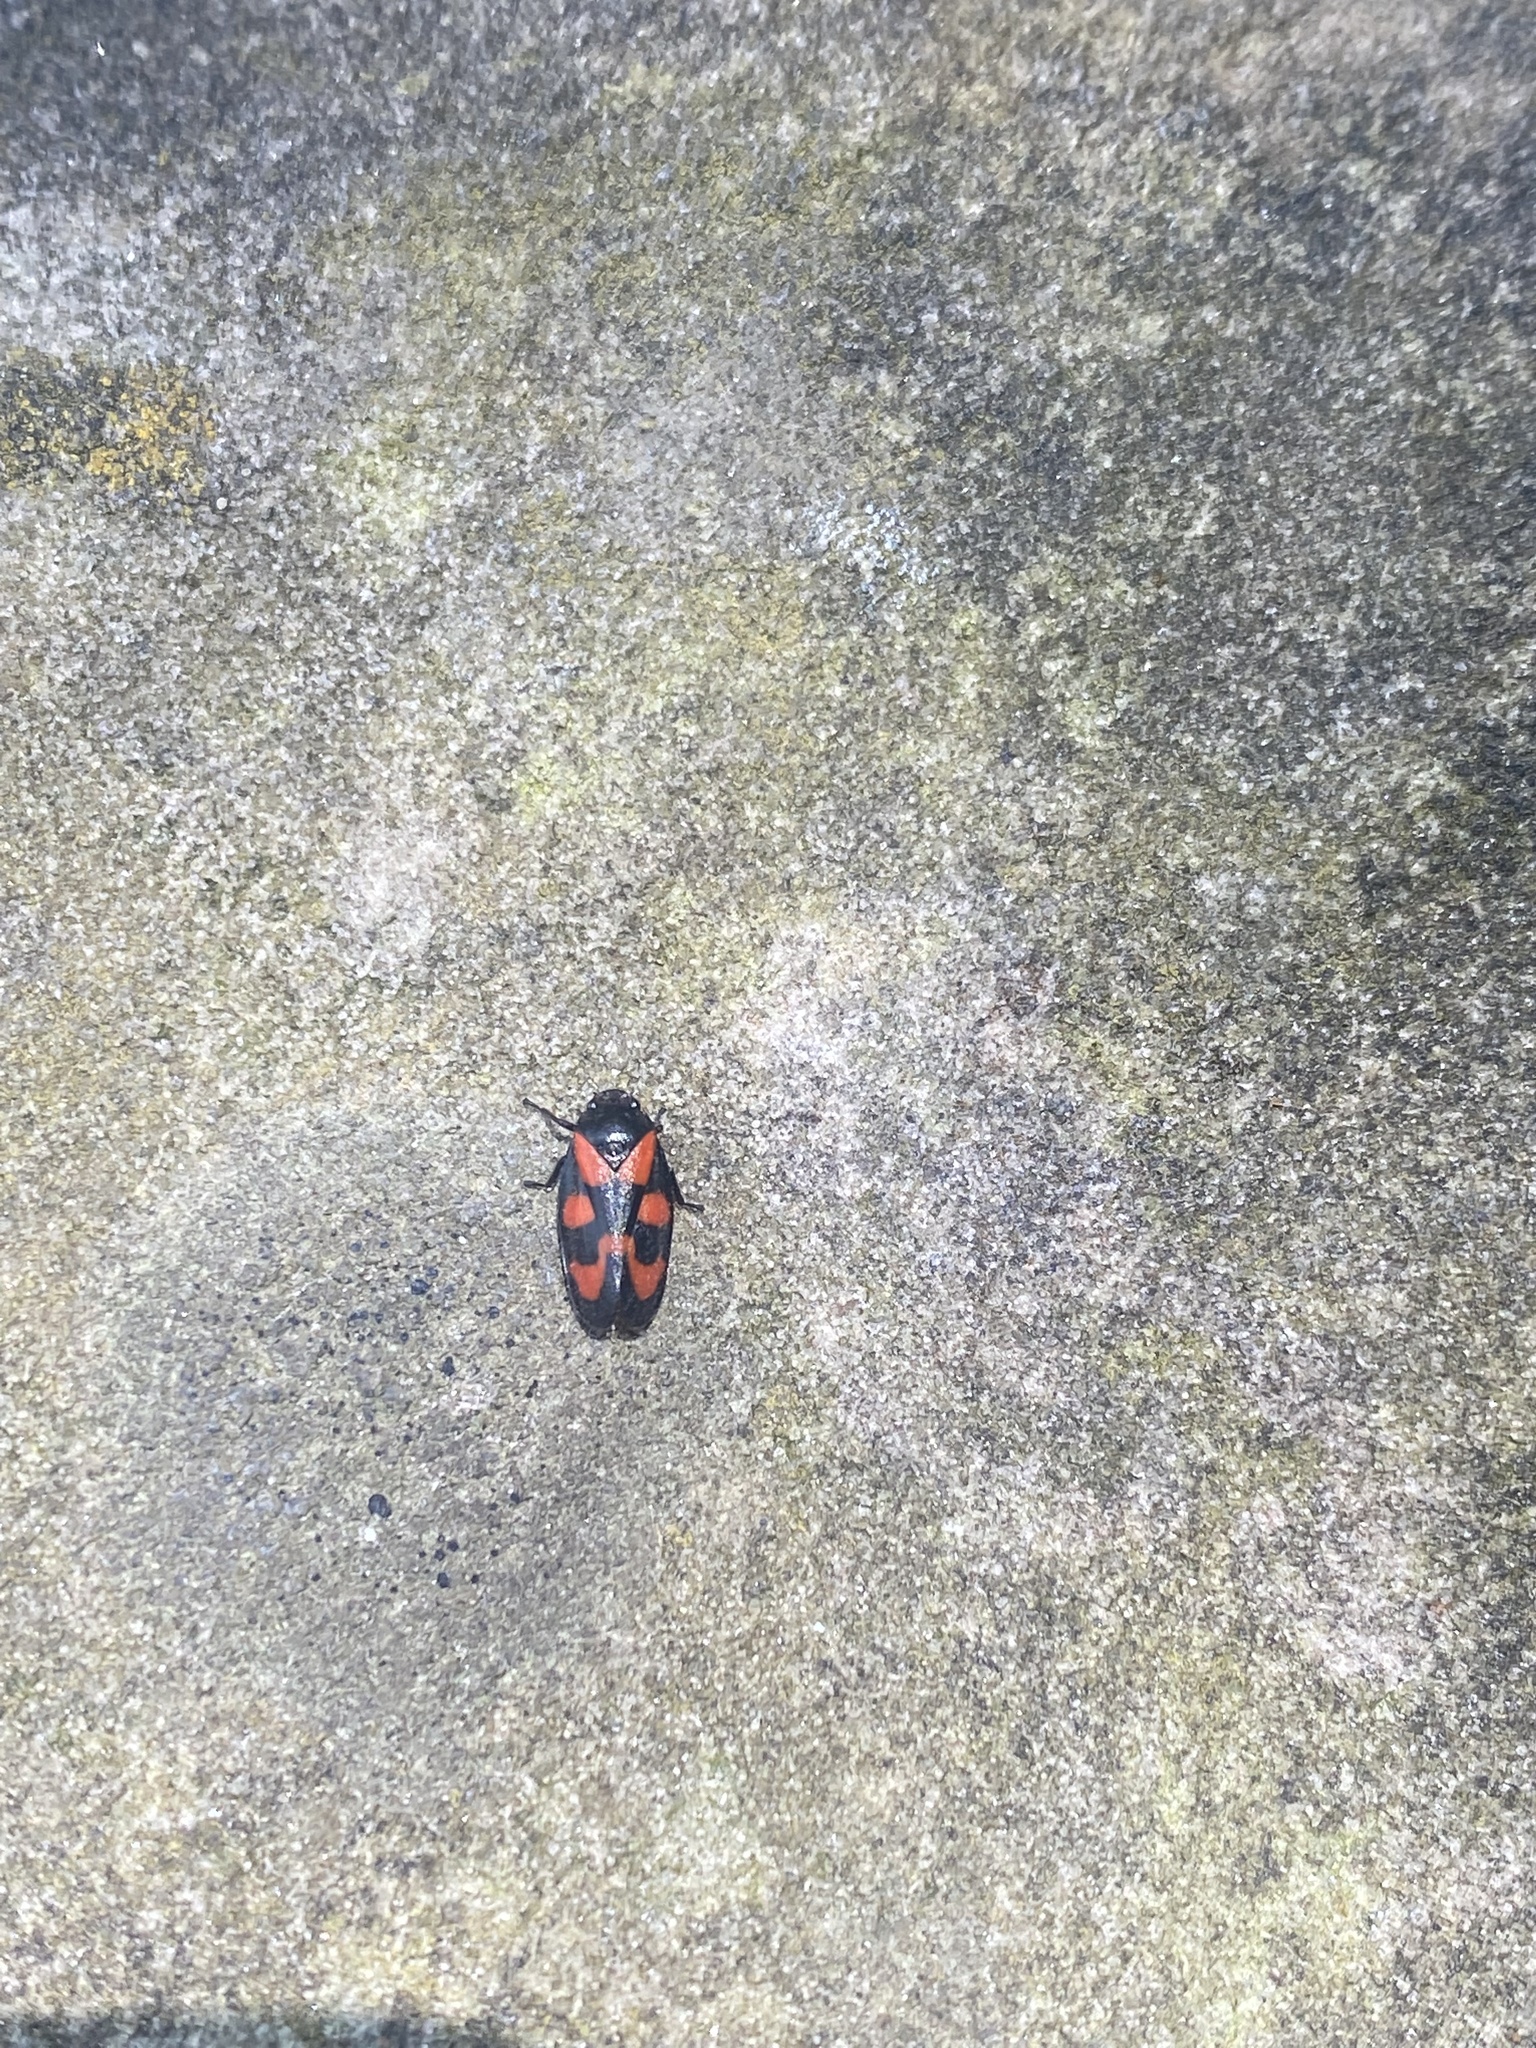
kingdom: Animalia
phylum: Arthropoda
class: Insecta
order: Hemiptera
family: Cercopidae
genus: Cercopis
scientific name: Cercopis vulnerata
